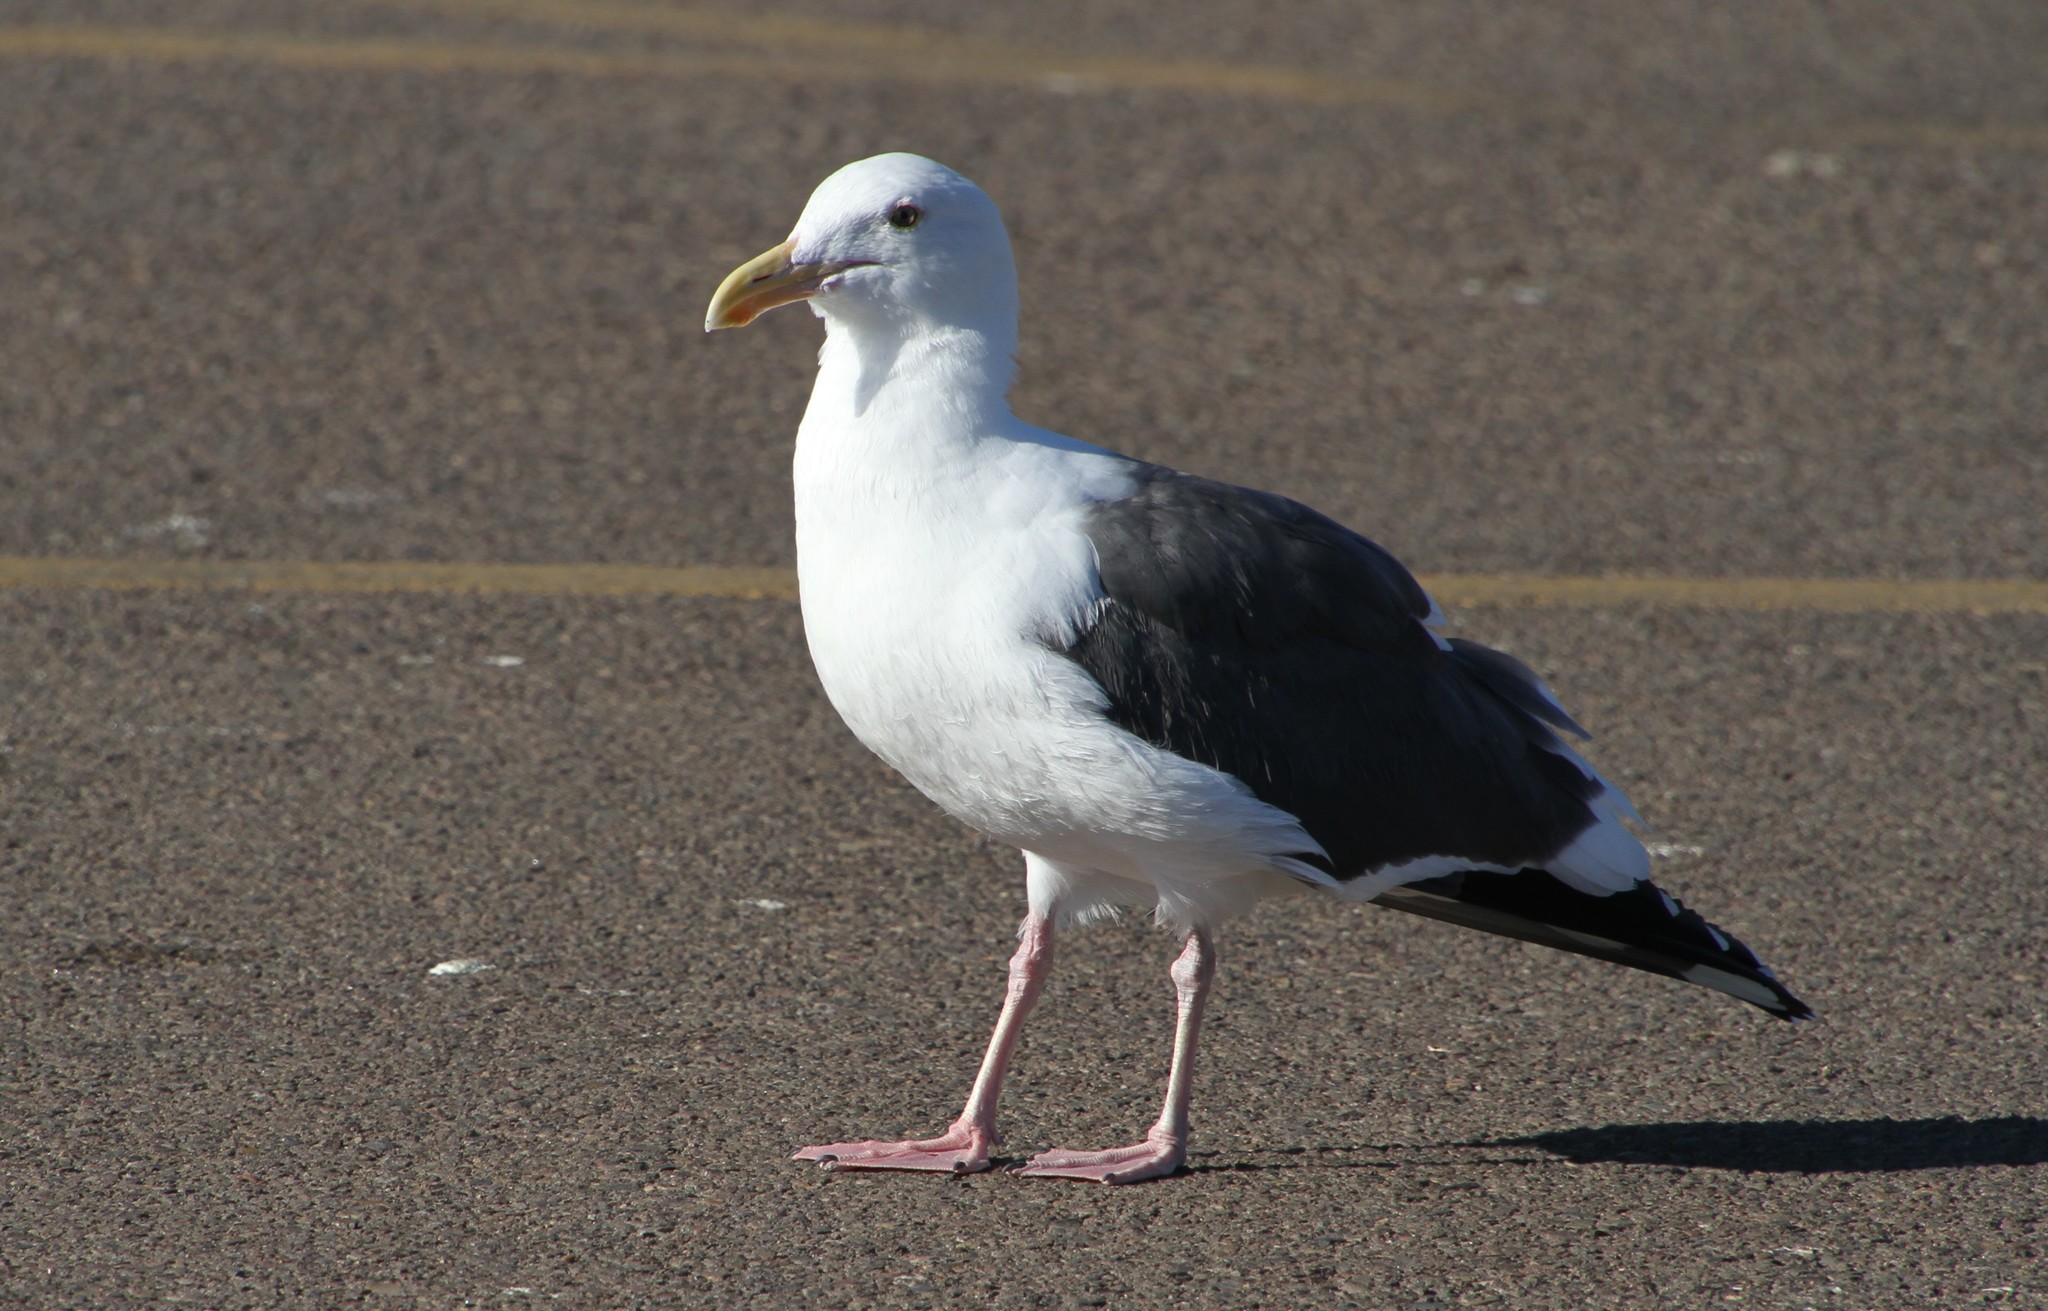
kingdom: Animalia
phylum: Chordata
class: Aves
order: Charadriiformes
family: Laridae
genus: Larus
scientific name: Larus occidentalis
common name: Western gull
